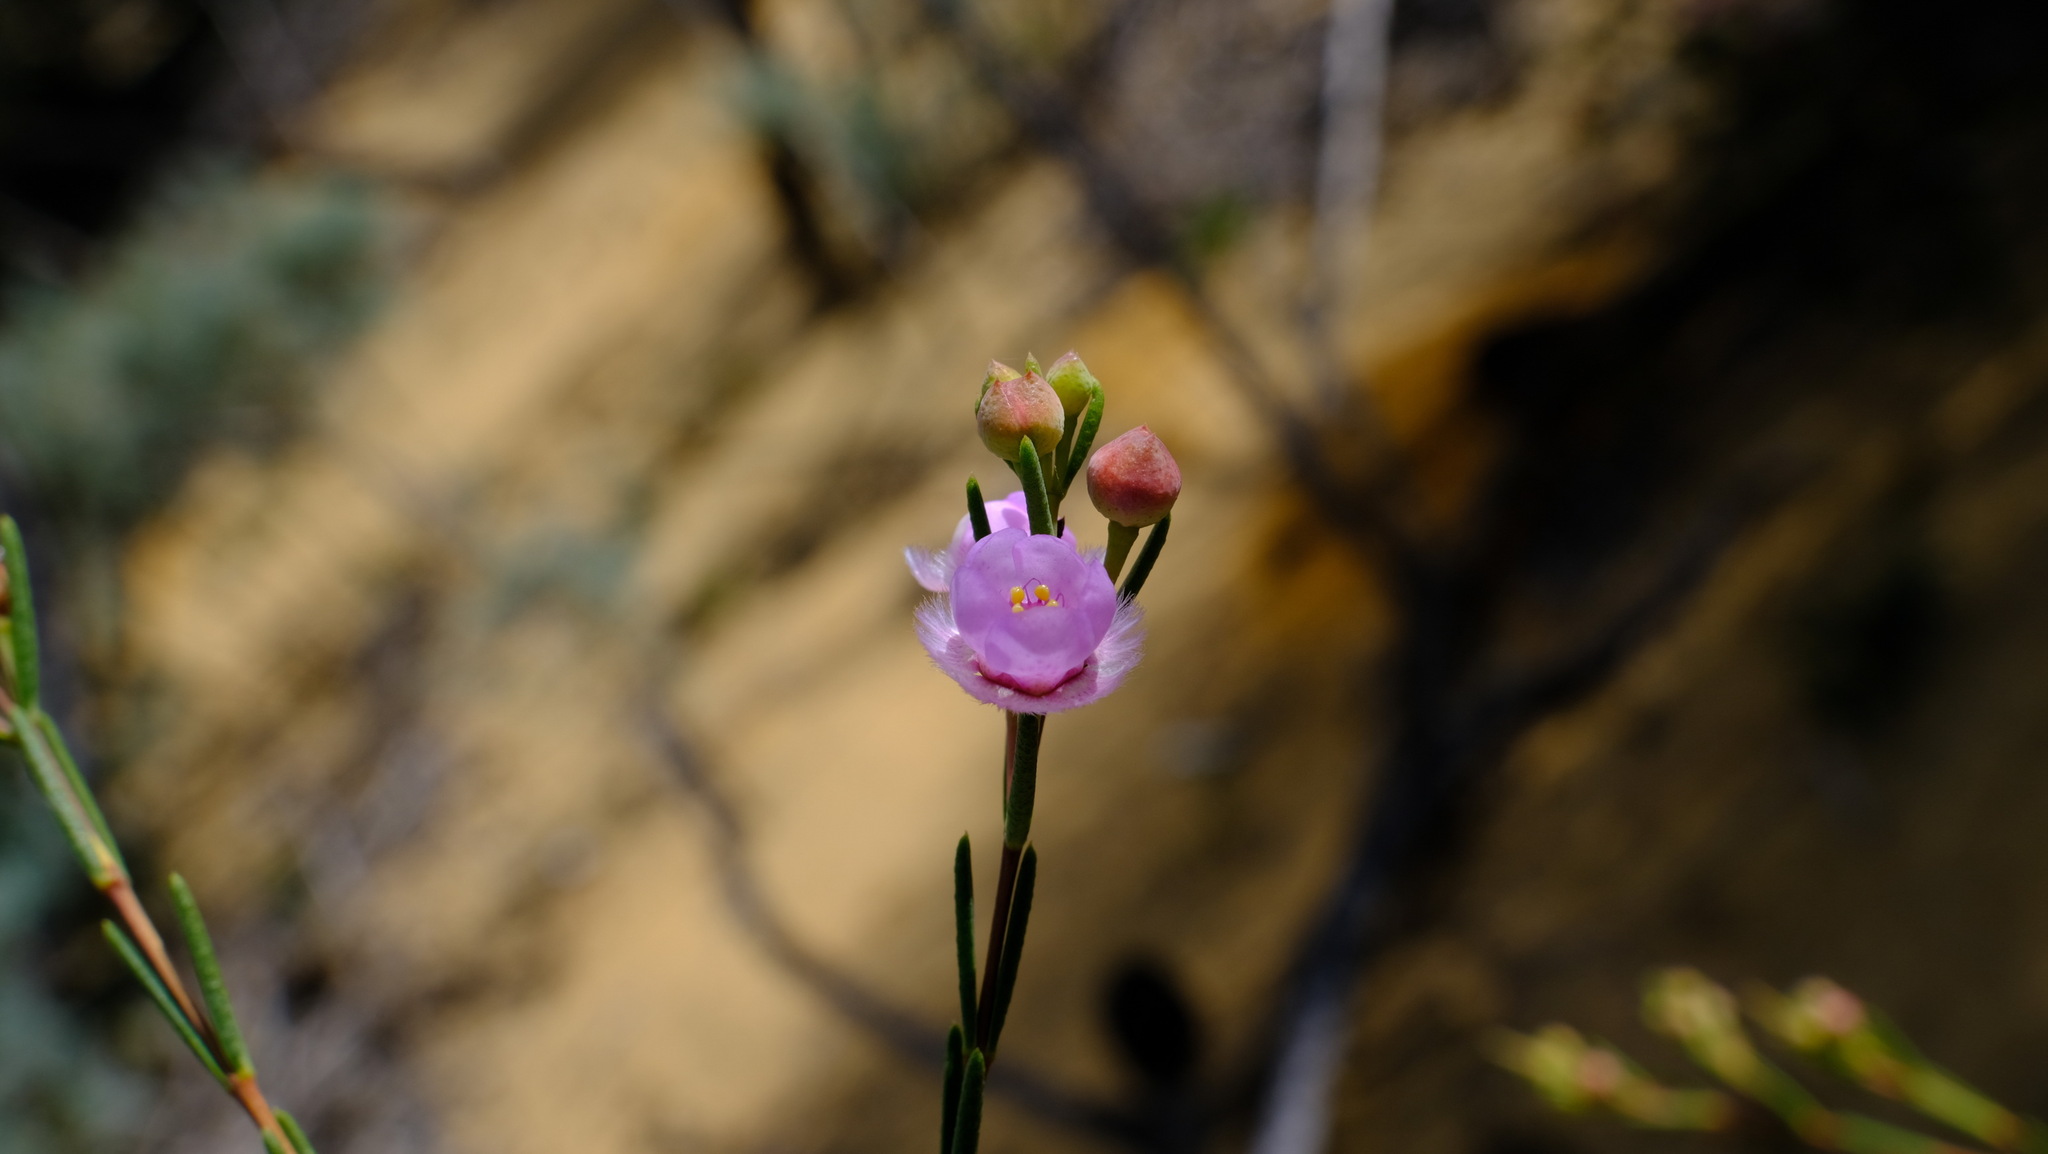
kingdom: Plantae
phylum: Tracheophyta
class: Magnoliopsida
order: Myrtales
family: Myrtaceae
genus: Verticordia
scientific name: Verticordia picta
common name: Painted feather-flower
